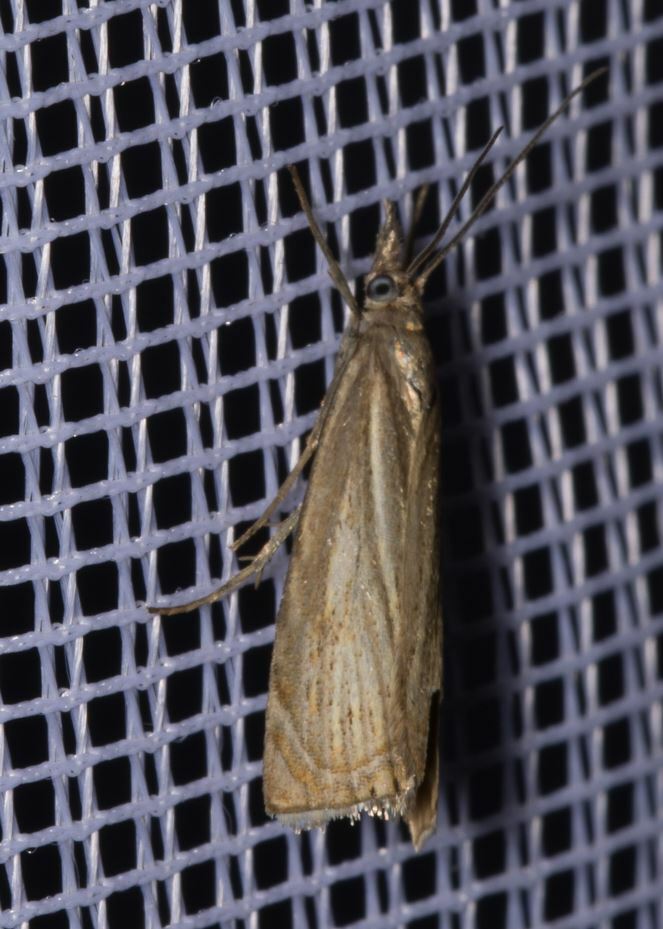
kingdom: Animalia
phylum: Arthropoda
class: Insecta
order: Lepidoptera
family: Crambidae
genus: Chrysoteuchia
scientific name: Chrysoteuchia culmella
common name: Garden grass-veneer
